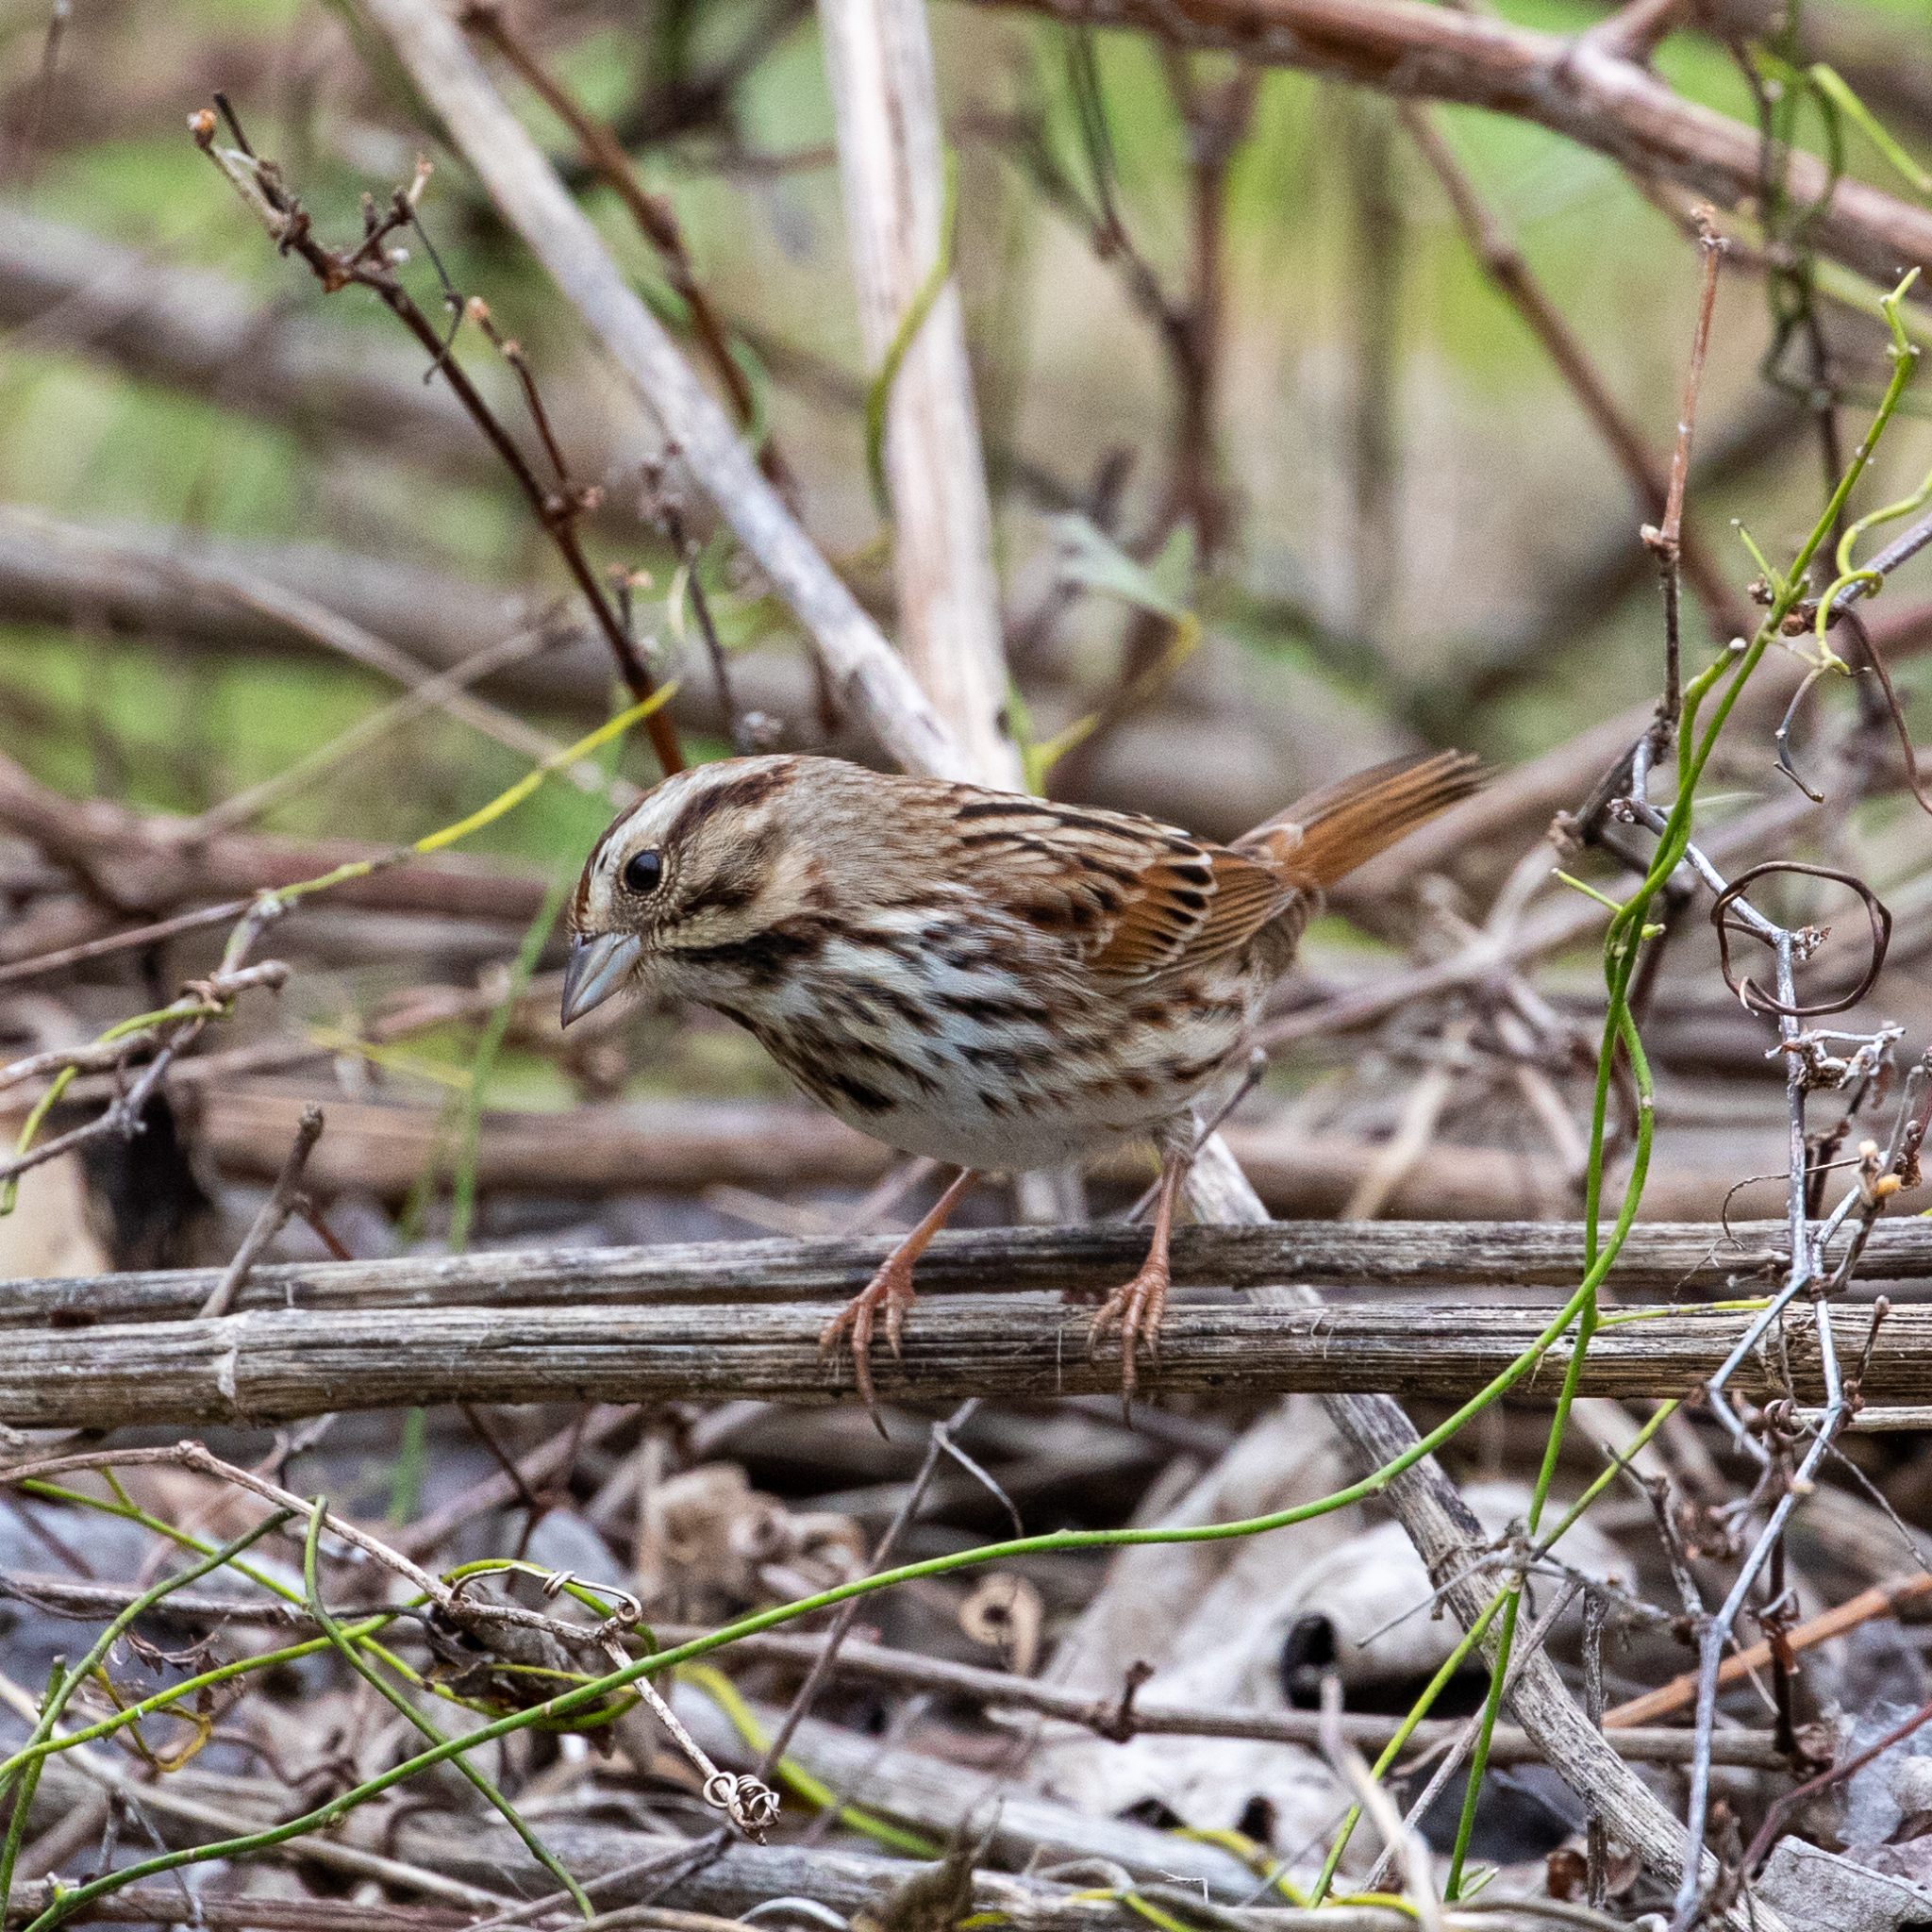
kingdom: Animalia
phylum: Chordata
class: Aves
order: Passeriformes
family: Passerellidae
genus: Melospiza
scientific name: Melospiza melodia
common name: Song sparrow
